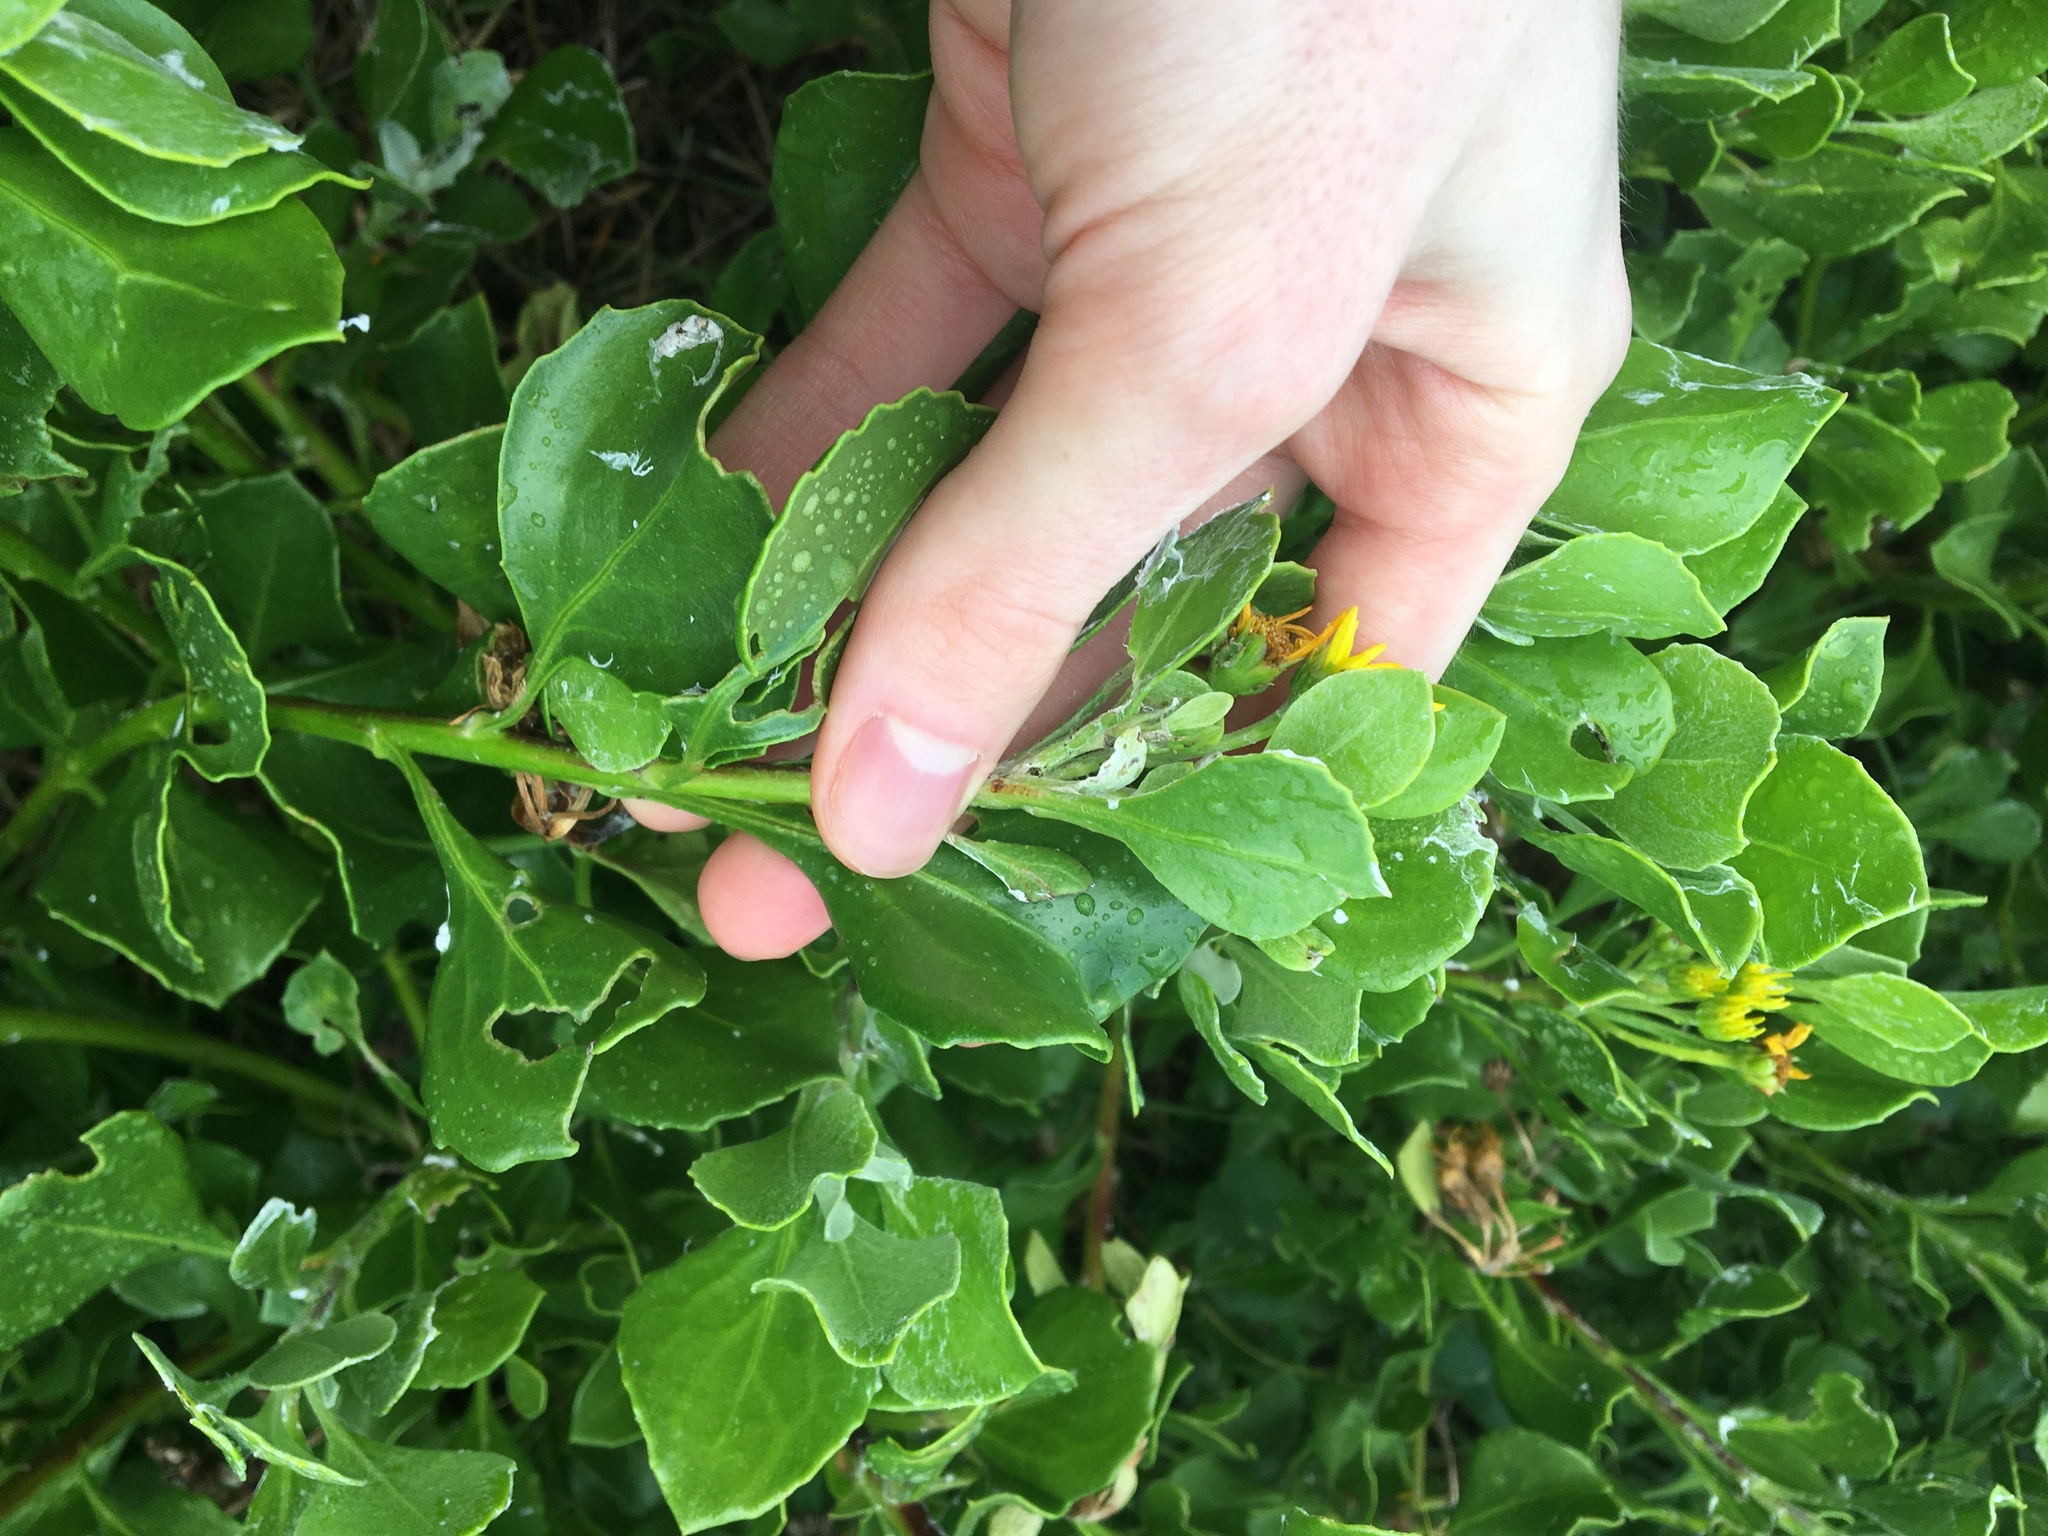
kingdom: Plantae
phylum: Tracheophyta
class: Magnoliopsida
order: Asterales
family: Asteraceae
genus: Osteospermum
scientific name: Osteospermum moniliferum
